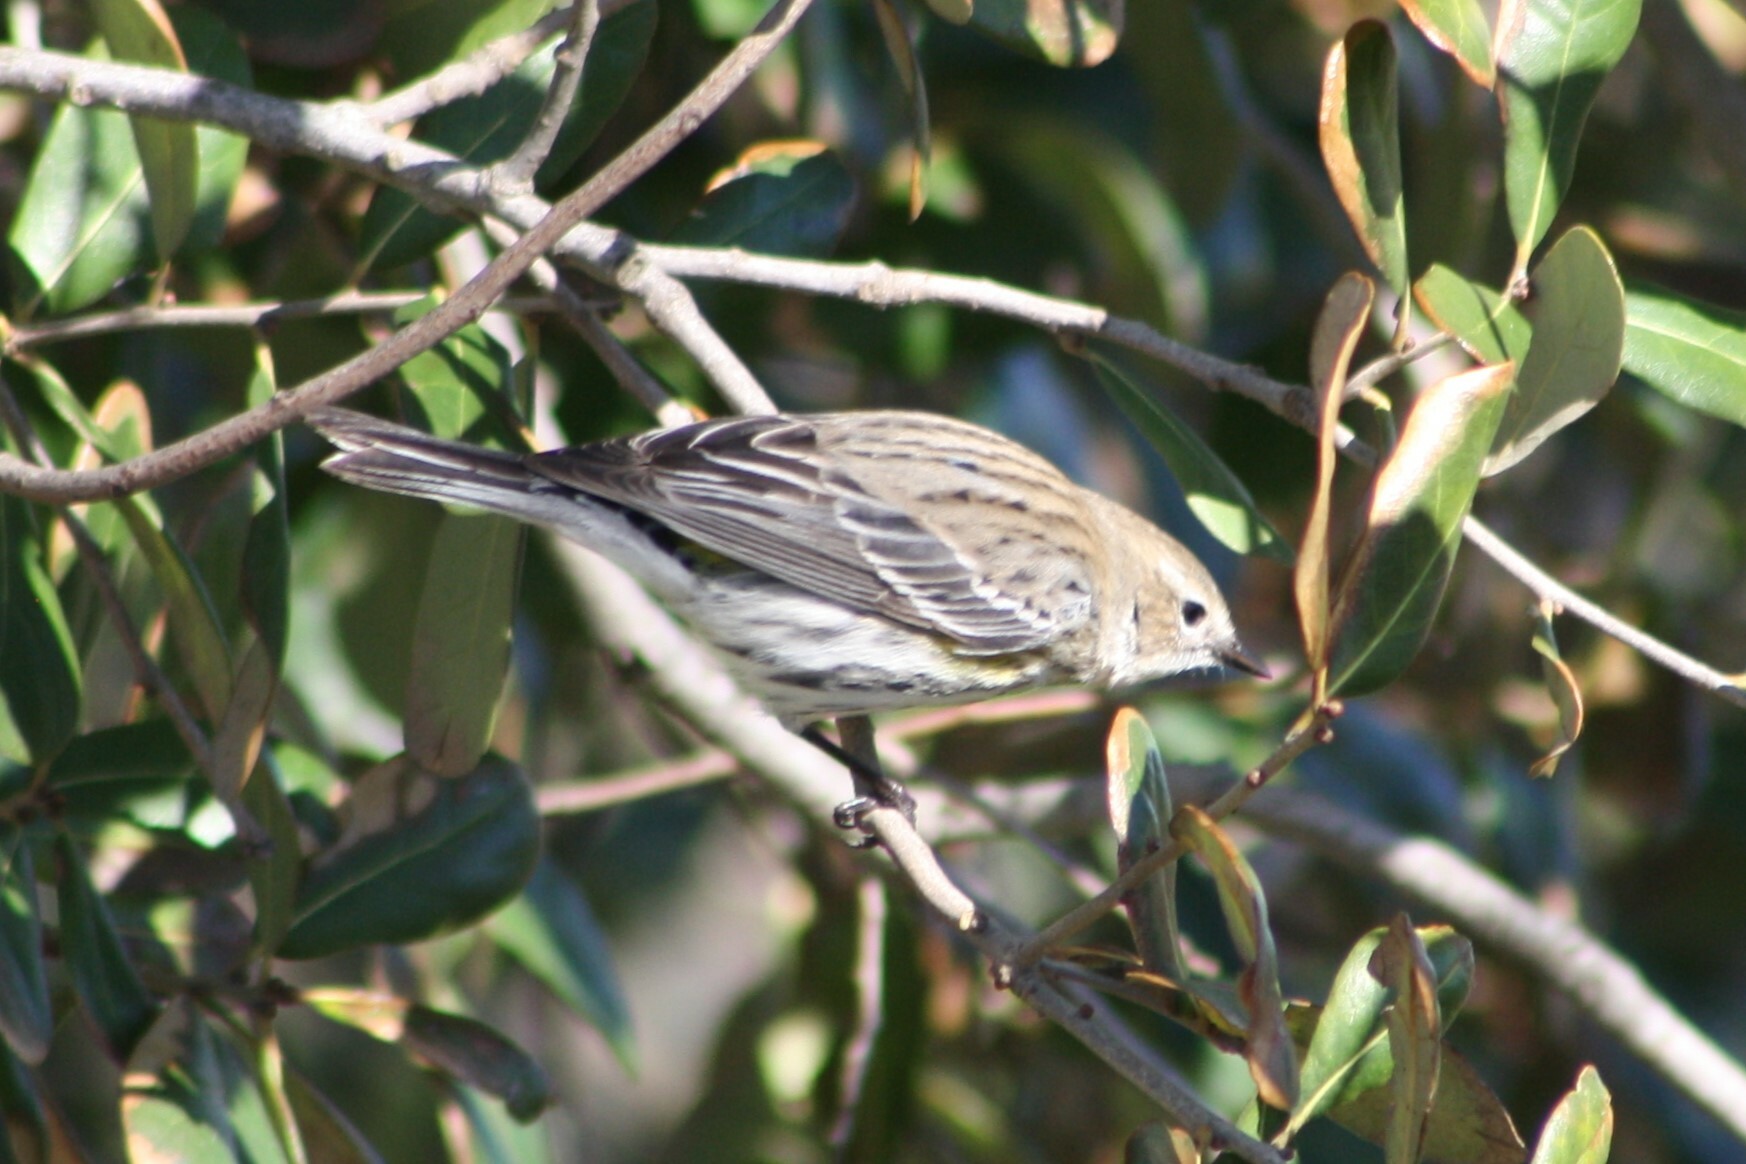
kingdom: Animalia
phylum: Chordata
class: Aves
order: Passeriformes
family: Parulidae
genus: Setophaga
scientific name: Setophaga coronata
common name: Myrtle warbler
